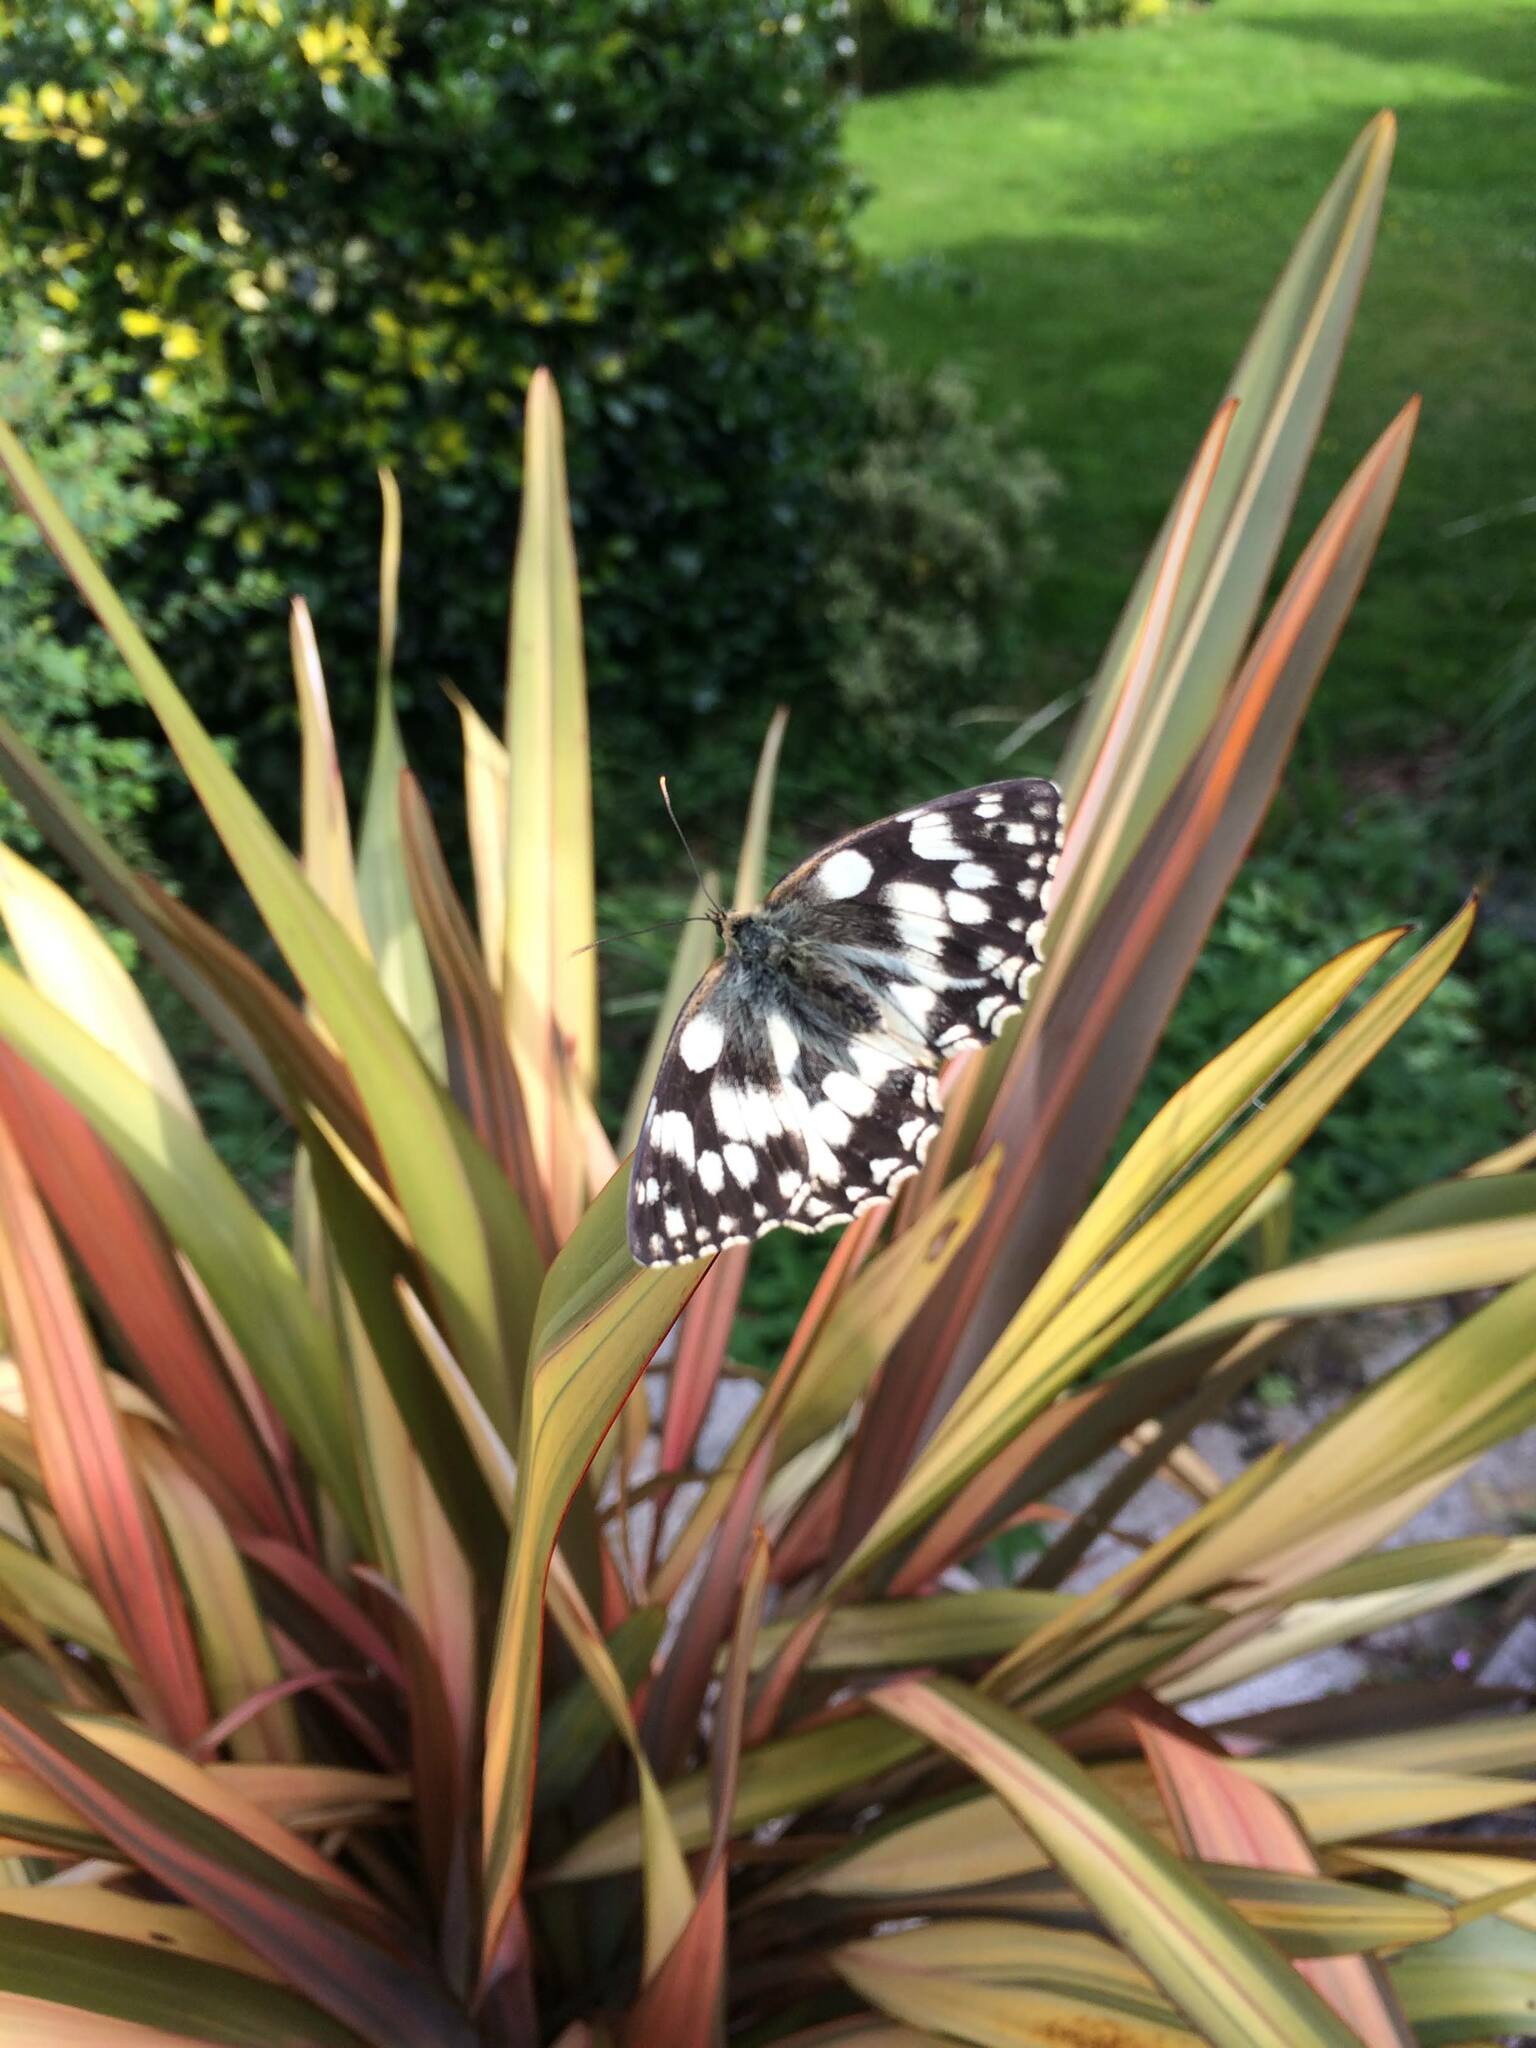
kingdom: Animalia
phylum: Arthropoda
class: Insecta
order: Lepidoptera
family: Nymphalidae
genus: Melanargia
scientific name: Melanargia galathea
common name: Marbled white
